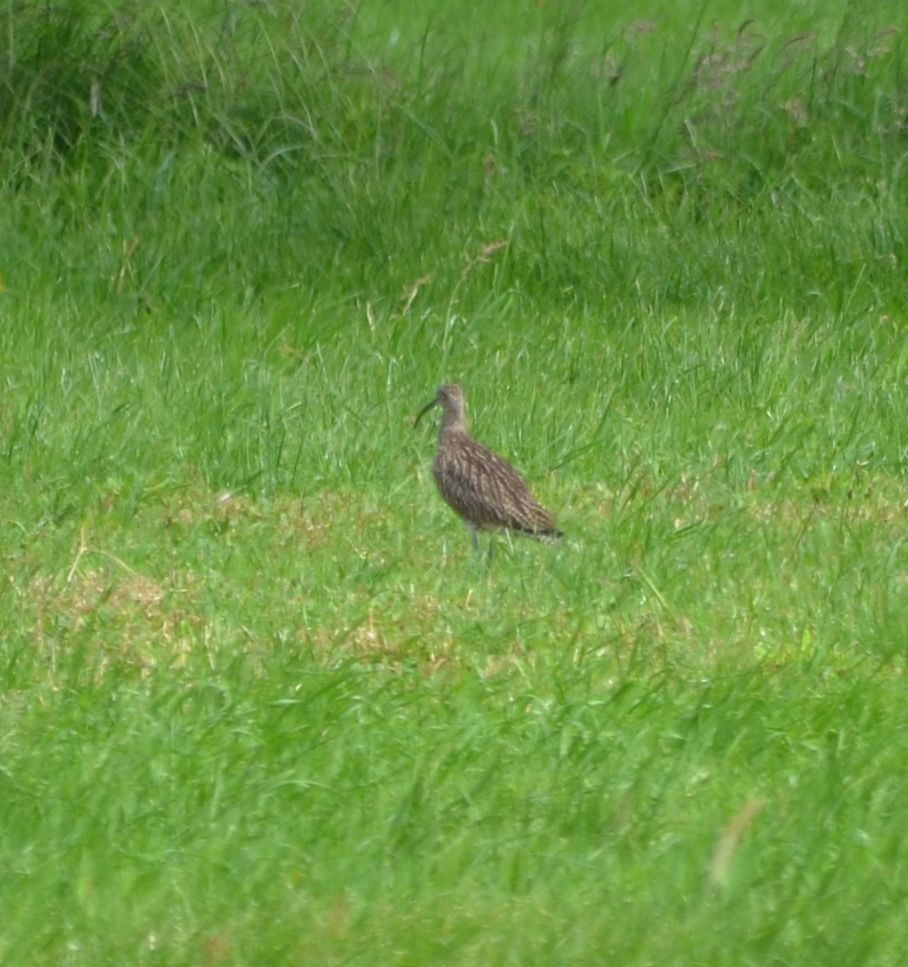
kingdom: Animalia
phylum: Chordata
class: Aves
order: Charadriiformes
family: Scolopacidae
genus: Numenius
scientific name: Numenius arquata
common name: Eurasian curlew
